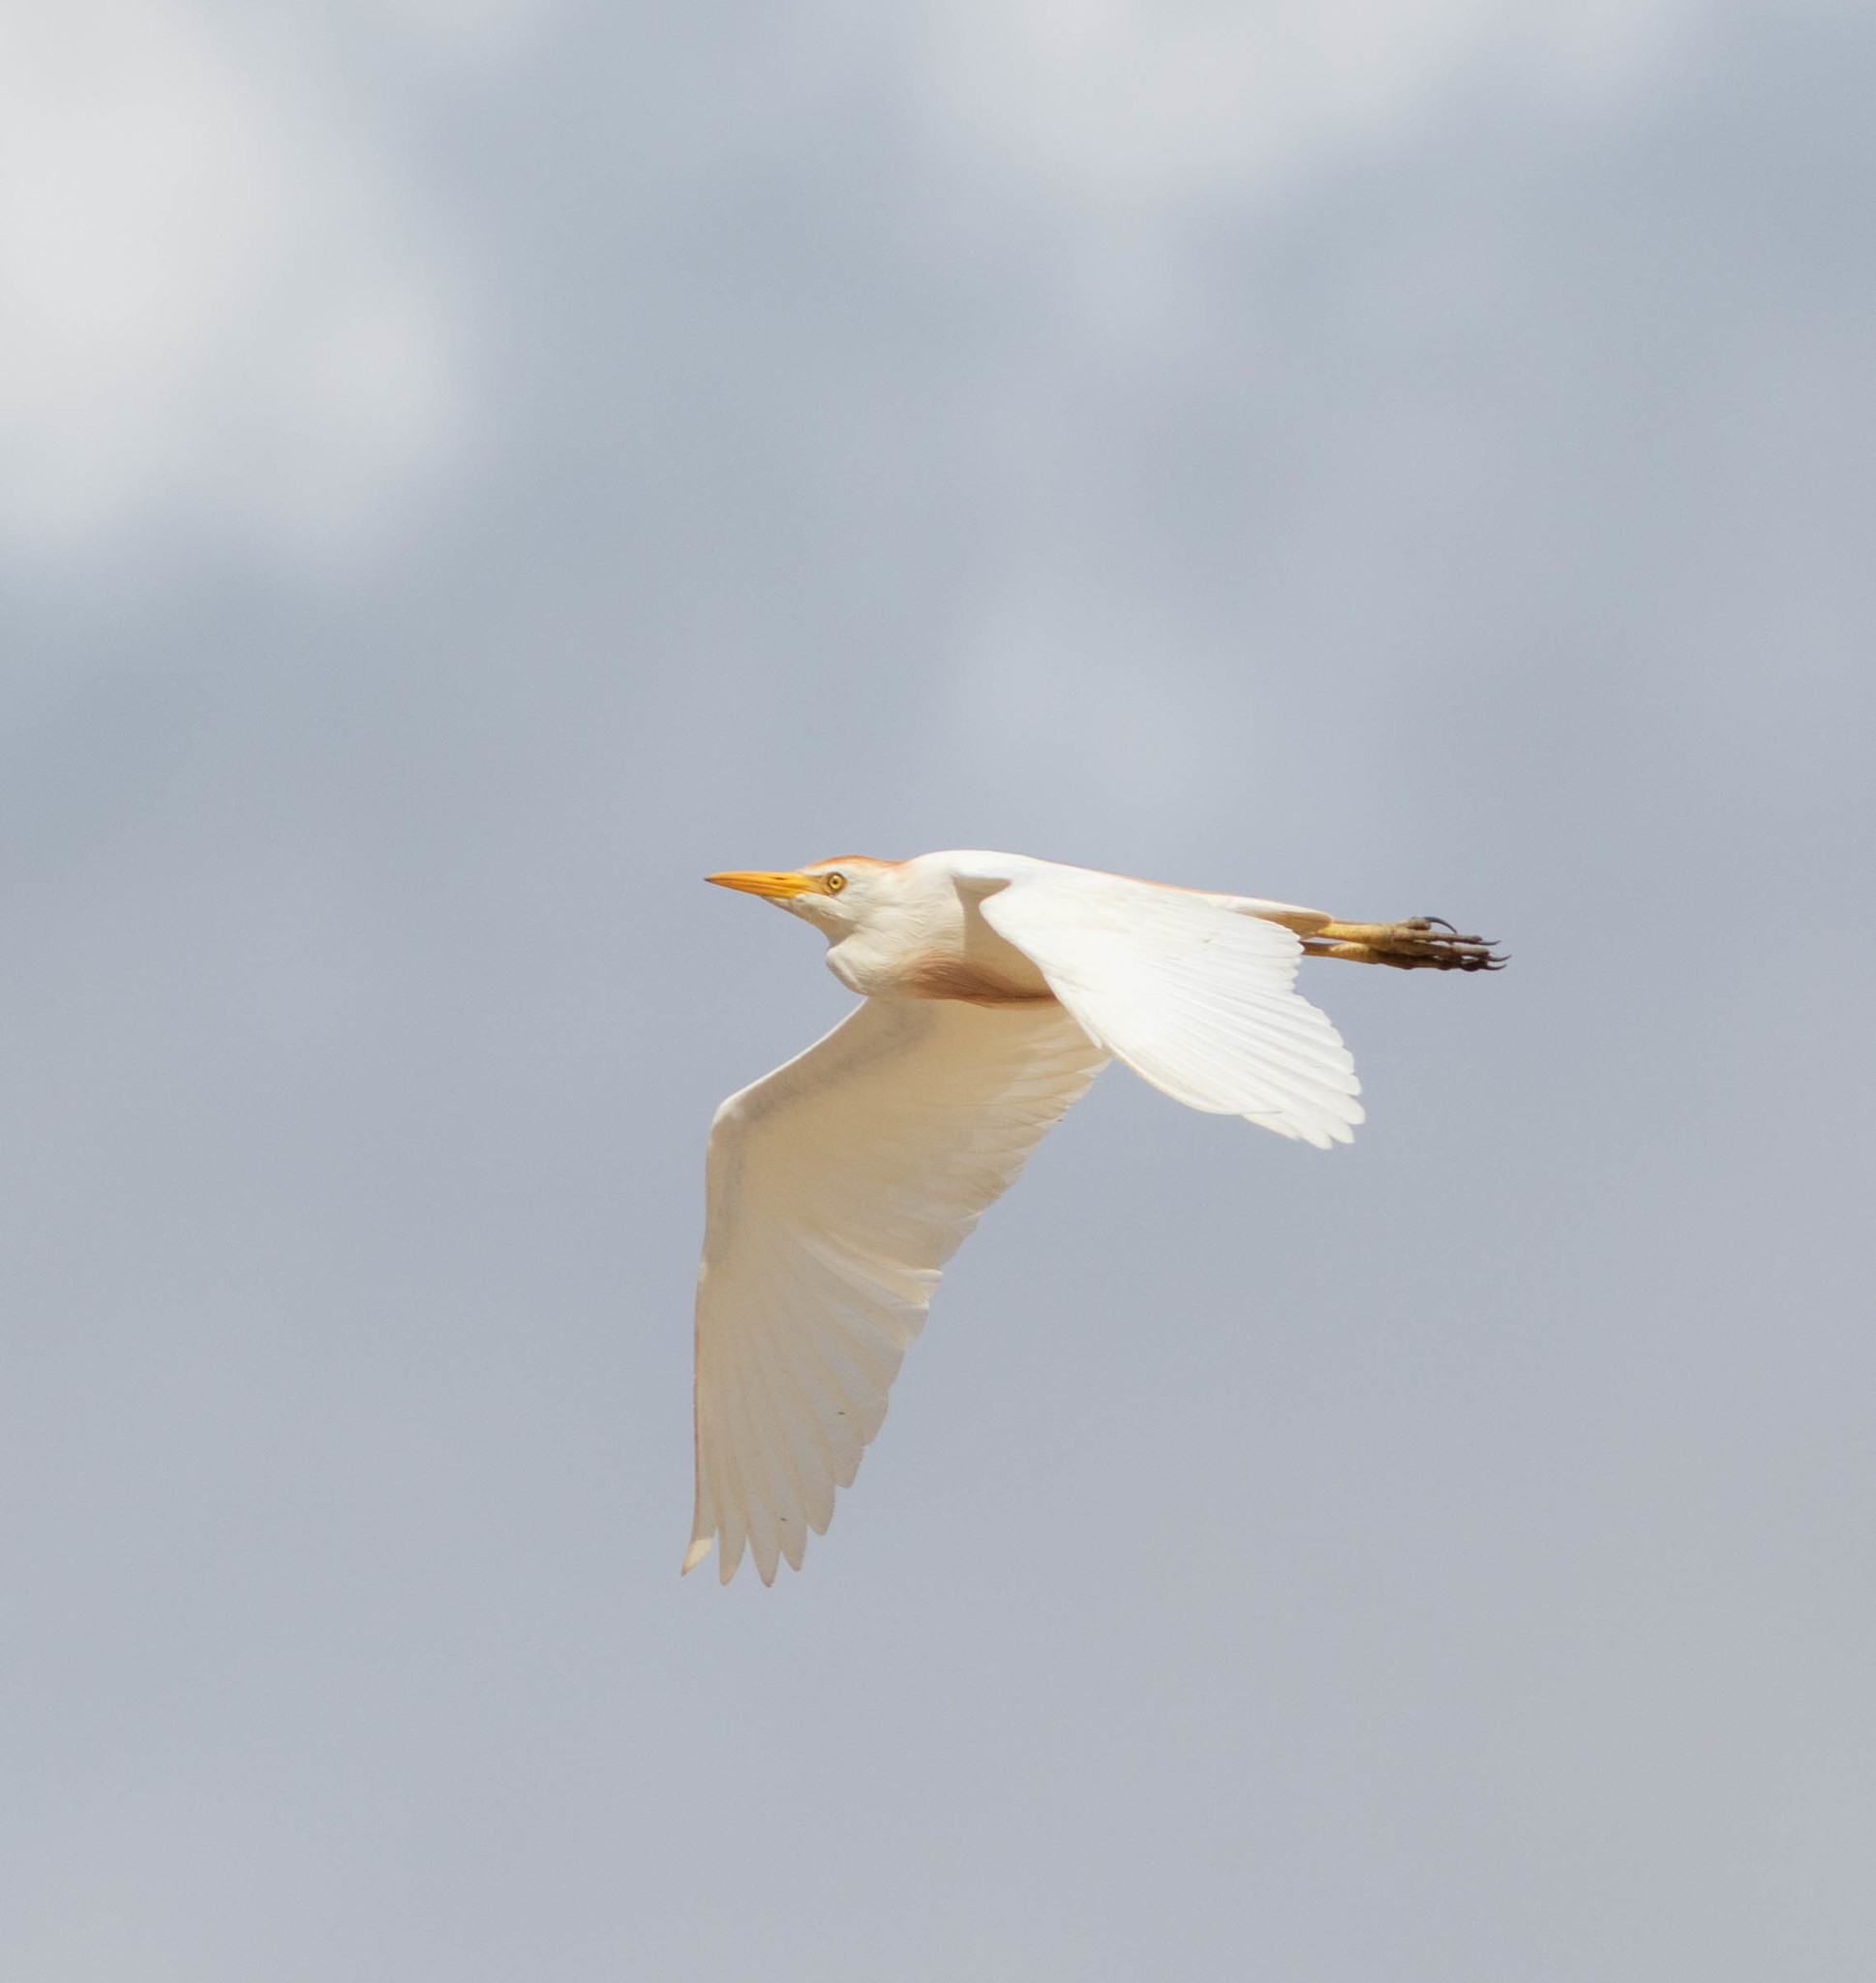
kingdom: Animalia
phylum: Chordata
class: Aves
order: Pelecaniformes
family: Ardeidae
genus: Bubulcus
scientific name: Bubulcus ibis
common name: Cattle egret
